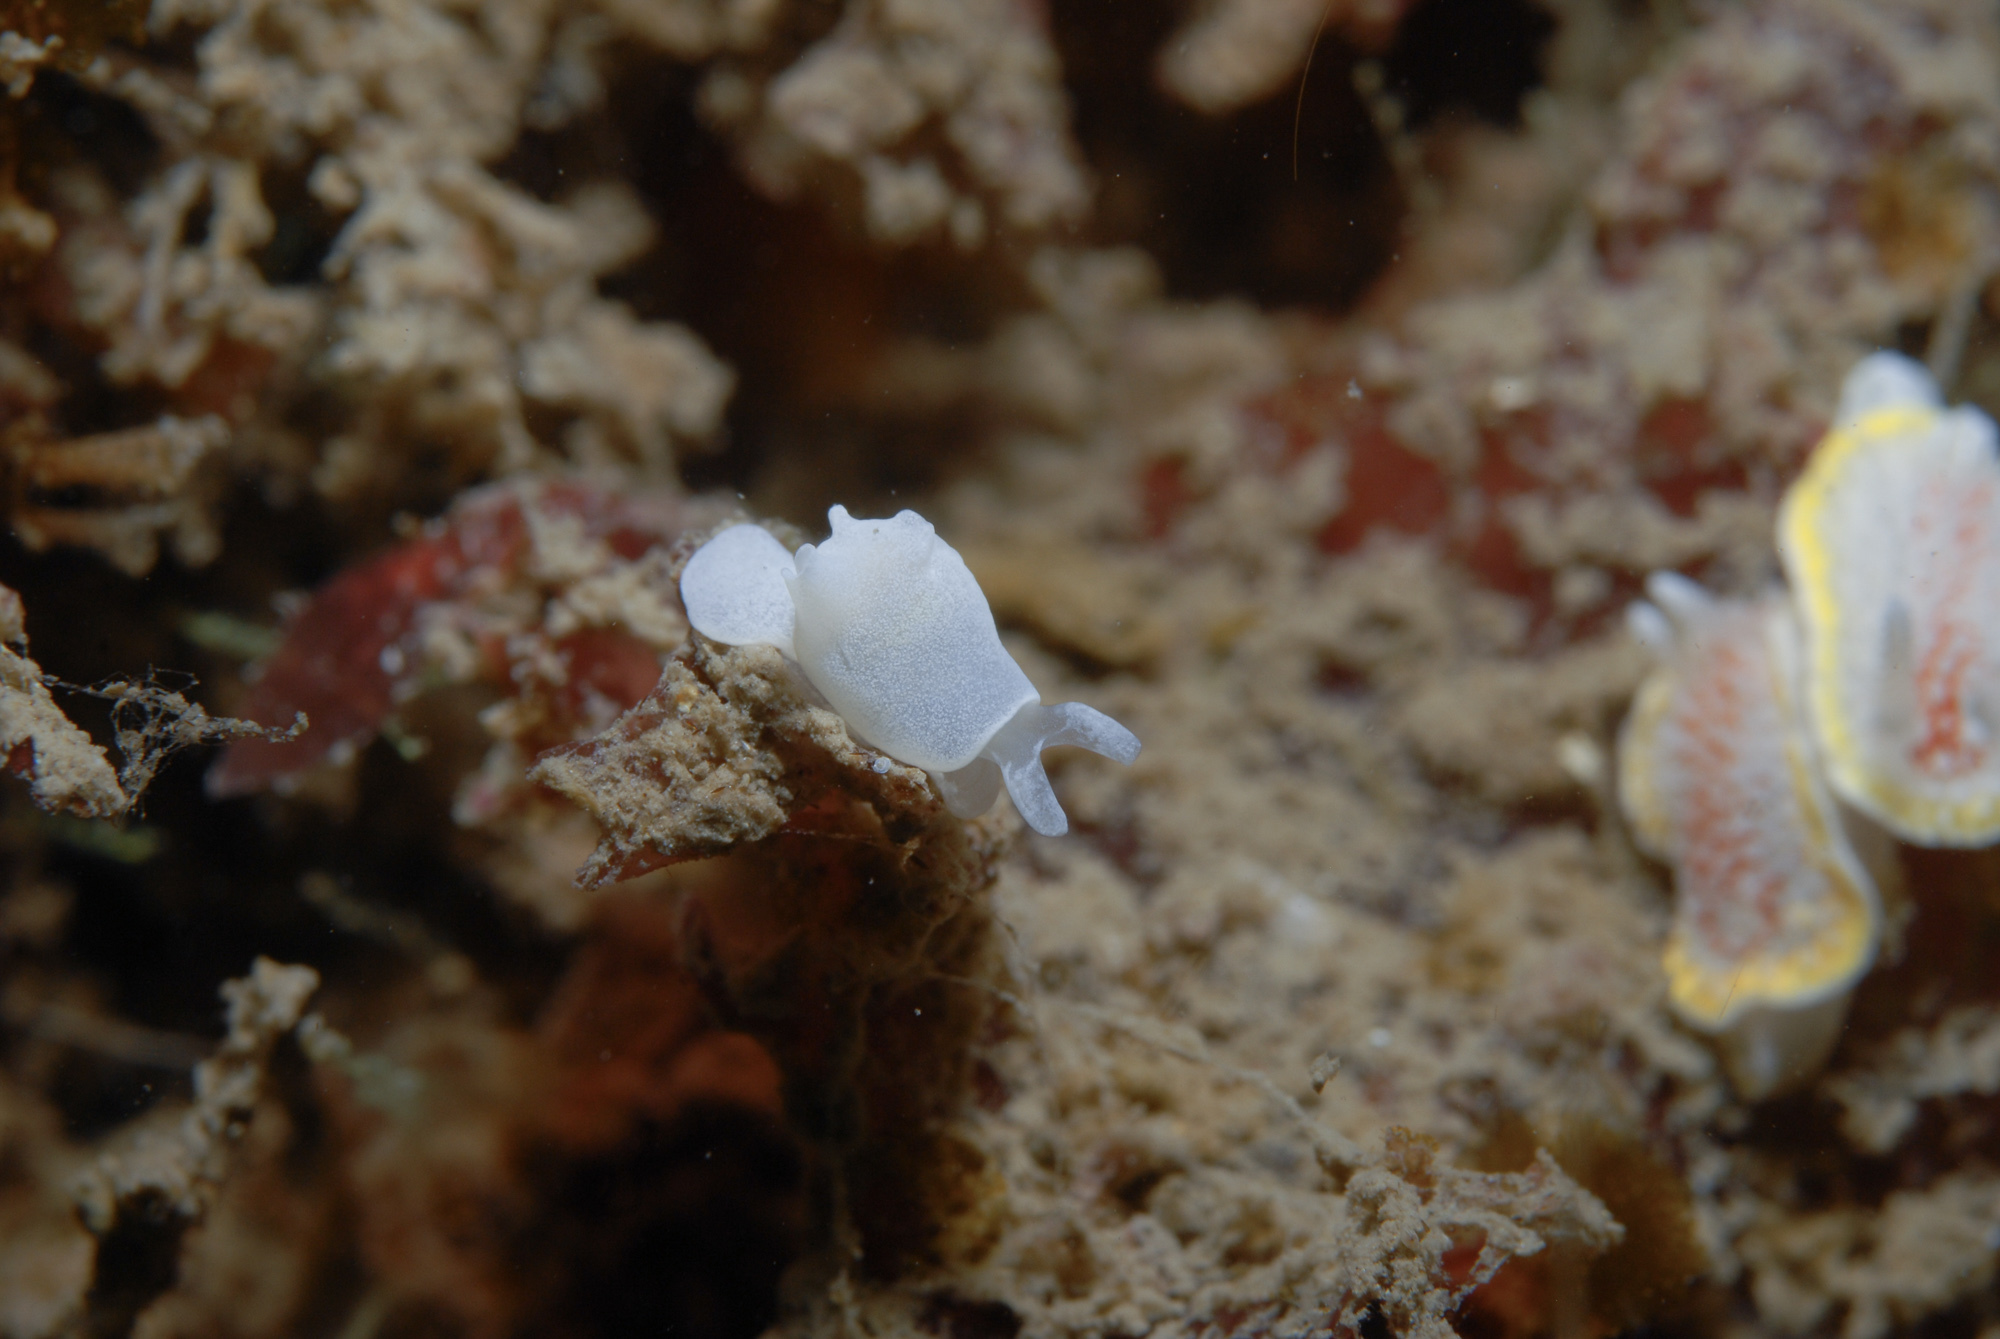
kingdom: Animalia
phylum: Mollusca
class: Gastropoda
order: Cephalaspidea
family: Colpodaspididae
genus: Colpodaspis
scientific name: Colpodaspis pusilla
